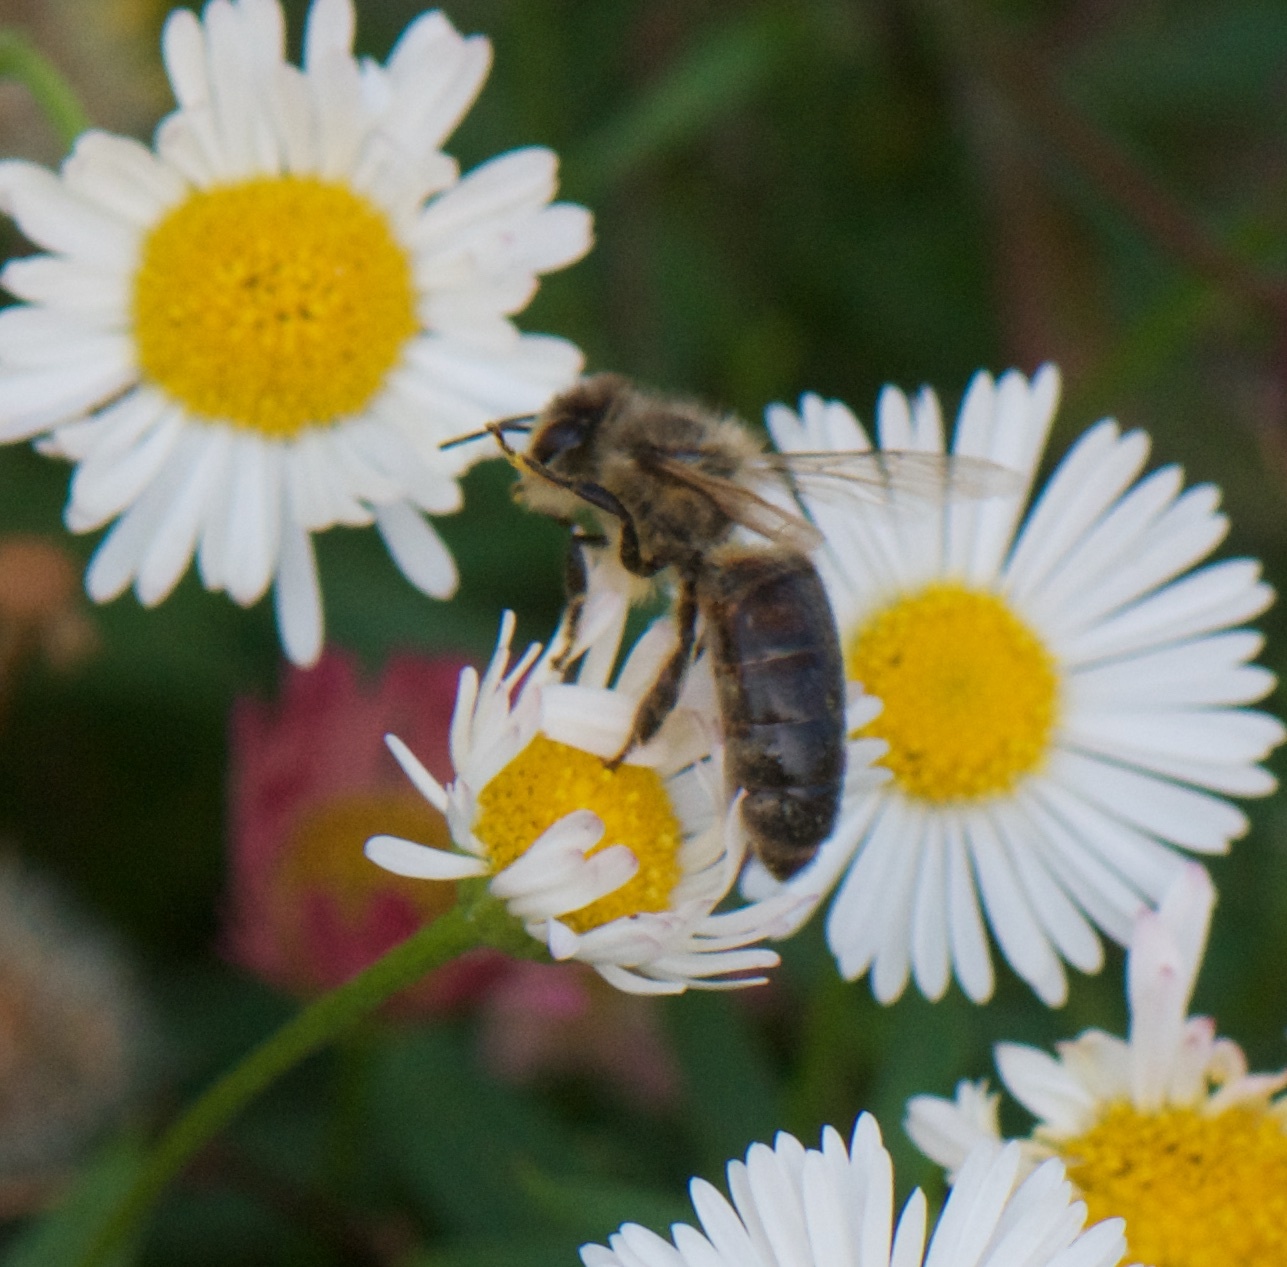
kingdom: Animalia
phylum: Arthropoda
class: Insecta
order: Hymenoptera
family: Apidae
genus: Apis
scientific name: Apis mellifera
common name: Honey bee
